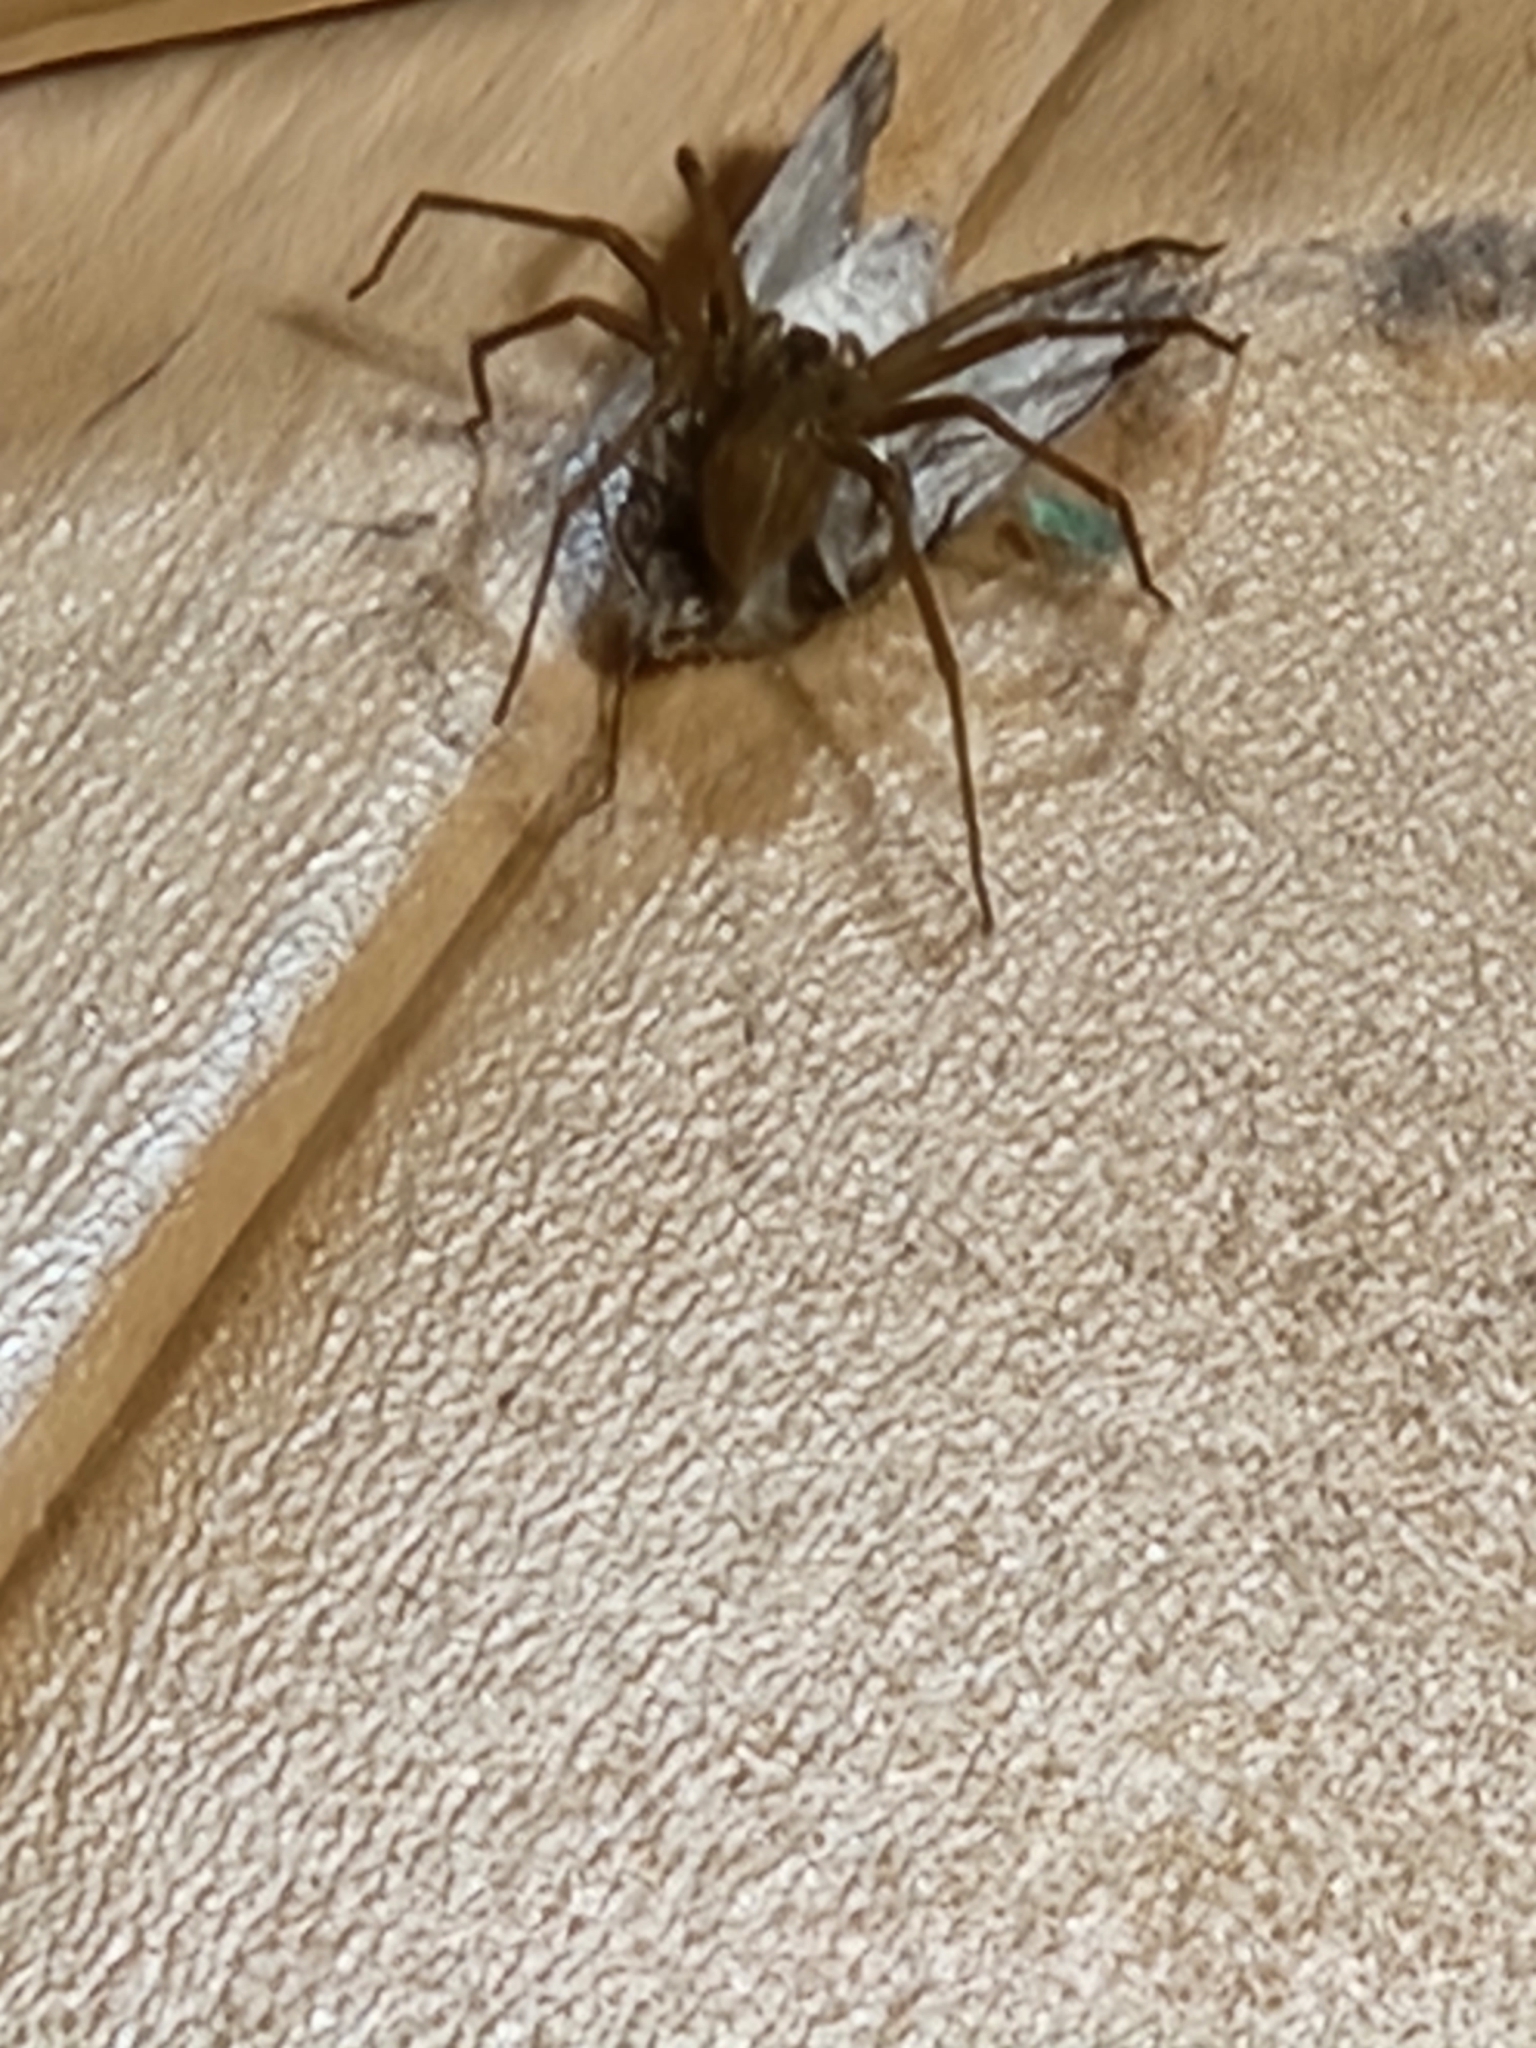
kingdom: Animalia
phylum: Arthropoda
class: Arachnida
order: Araneae
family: Sicariidae
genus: Loxosceles
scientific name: Loxosceles reclusa
